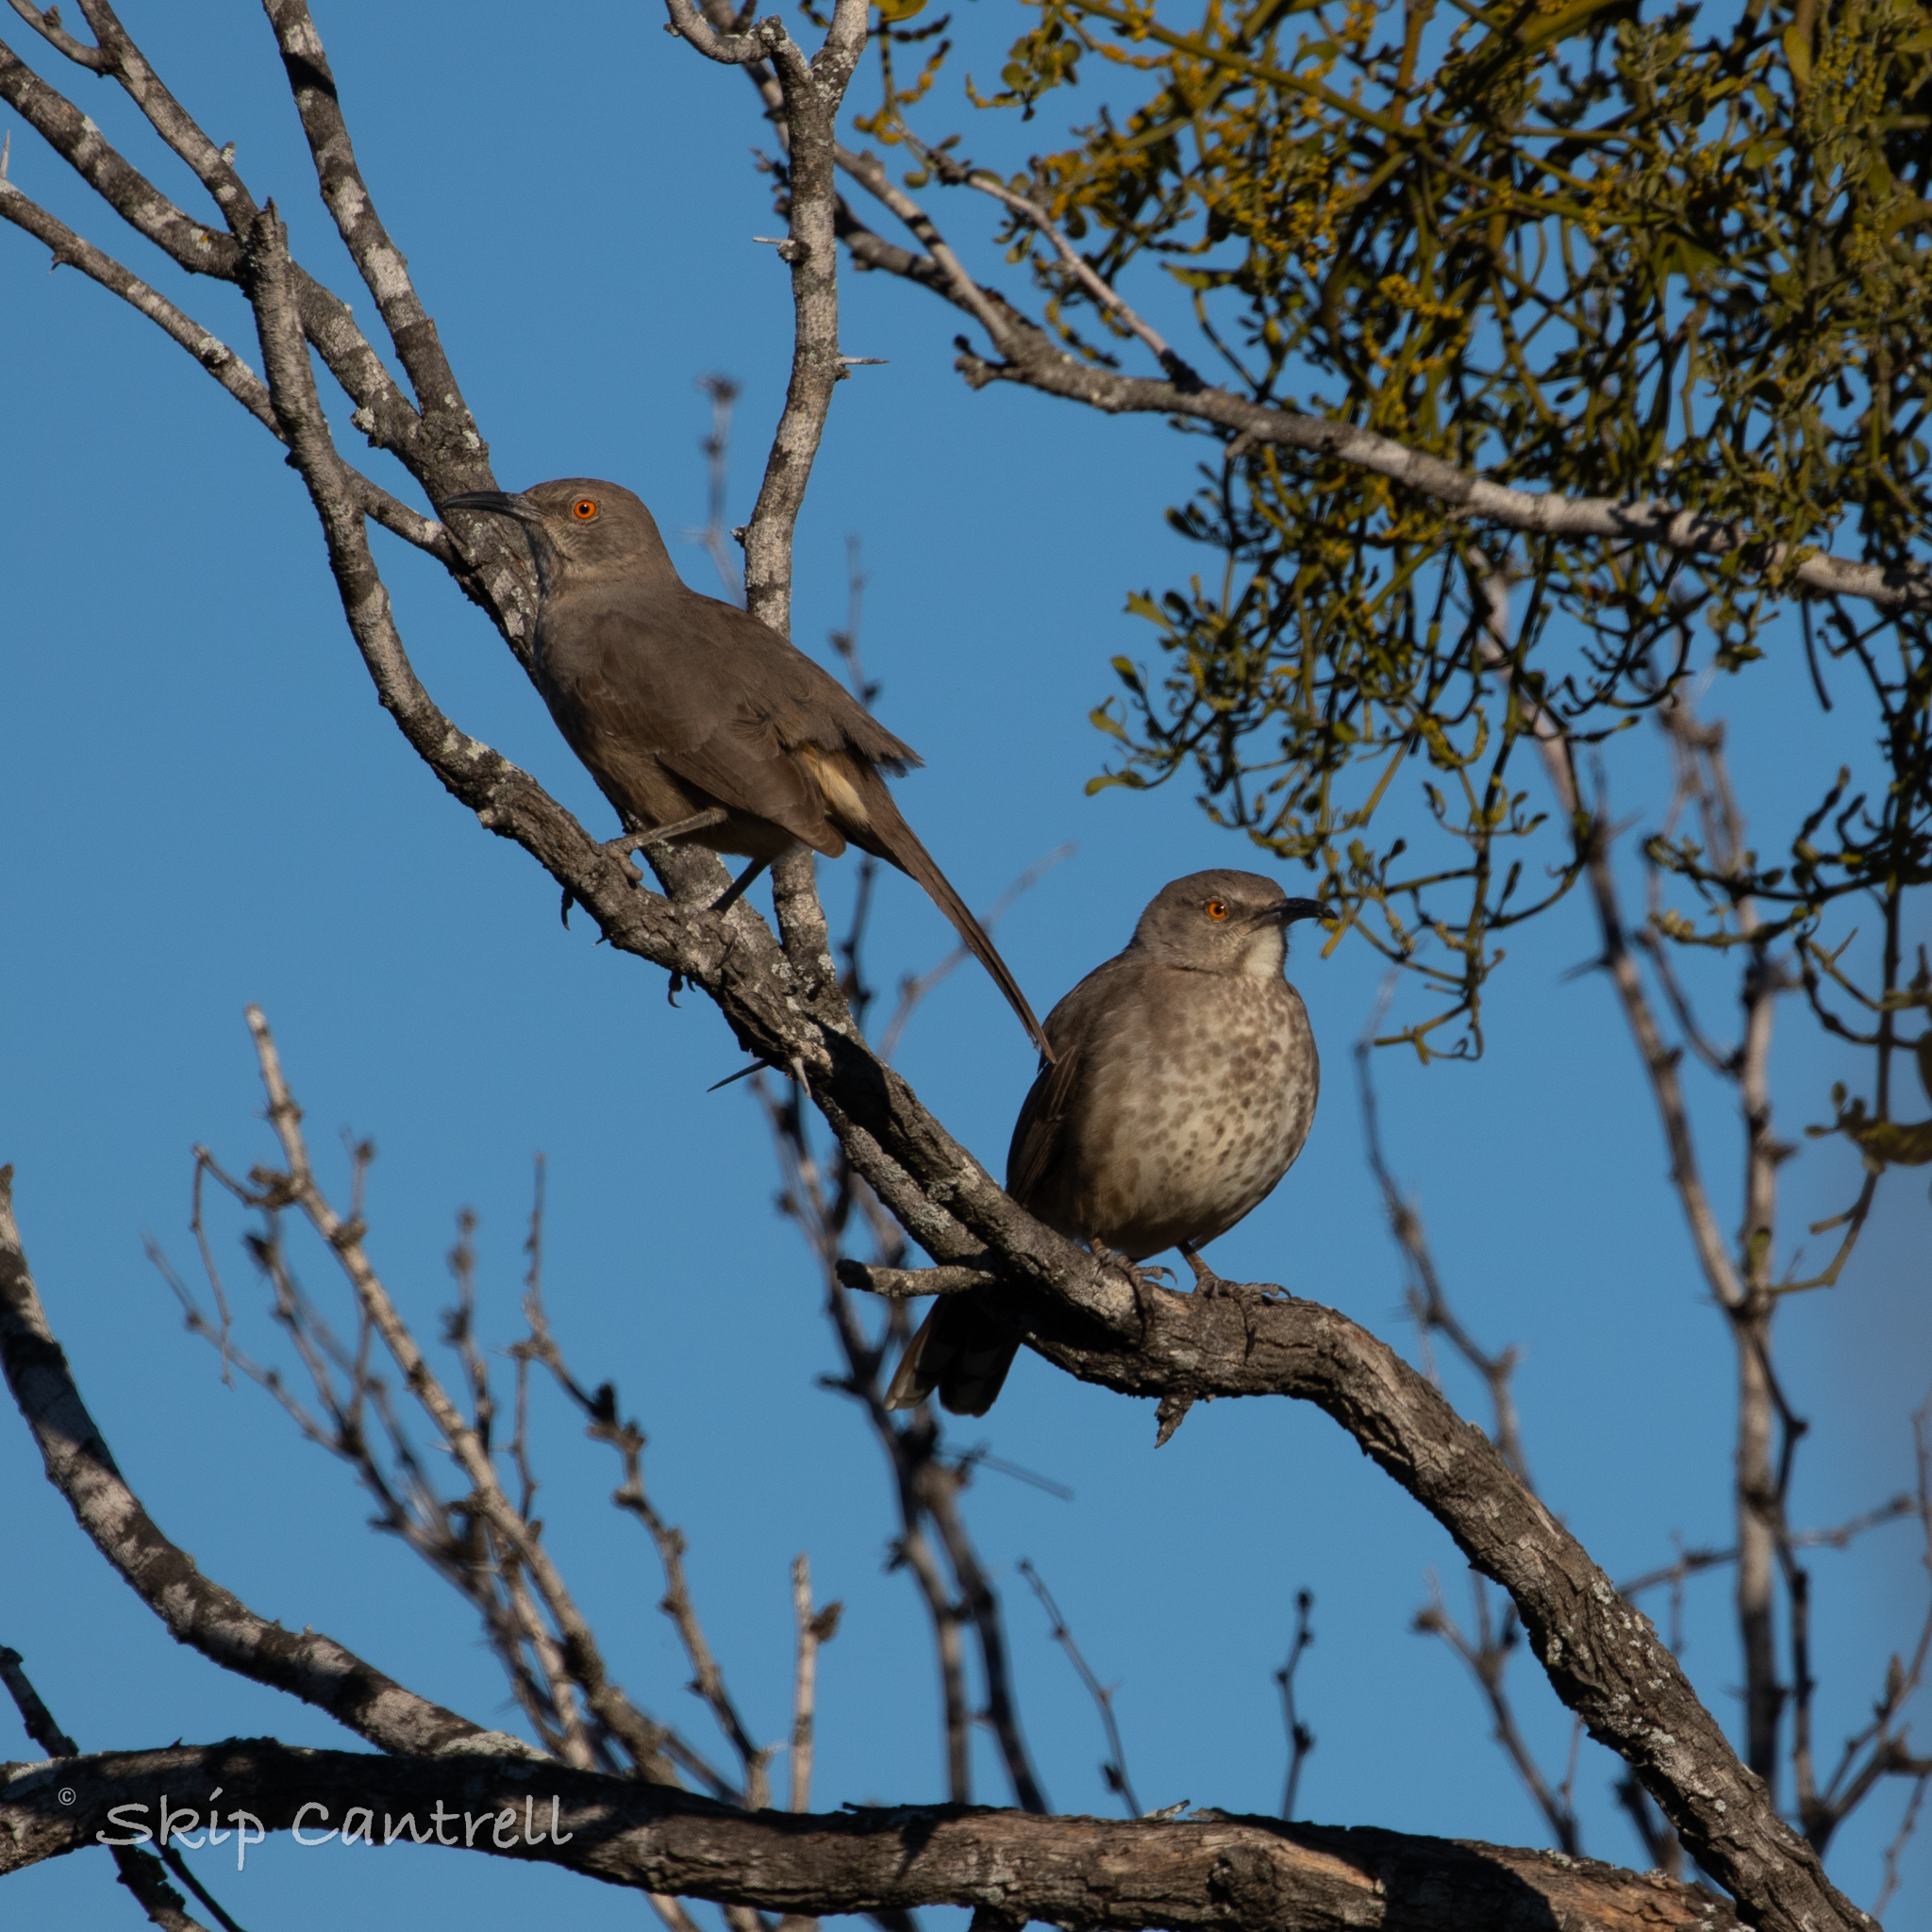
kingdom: Animalia
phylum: Chordata
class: Aves
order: Passeriformes
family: Mimidae
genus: Toxostoma
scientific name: Toxostoma curvirostre
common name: Curve-billed thrasher
